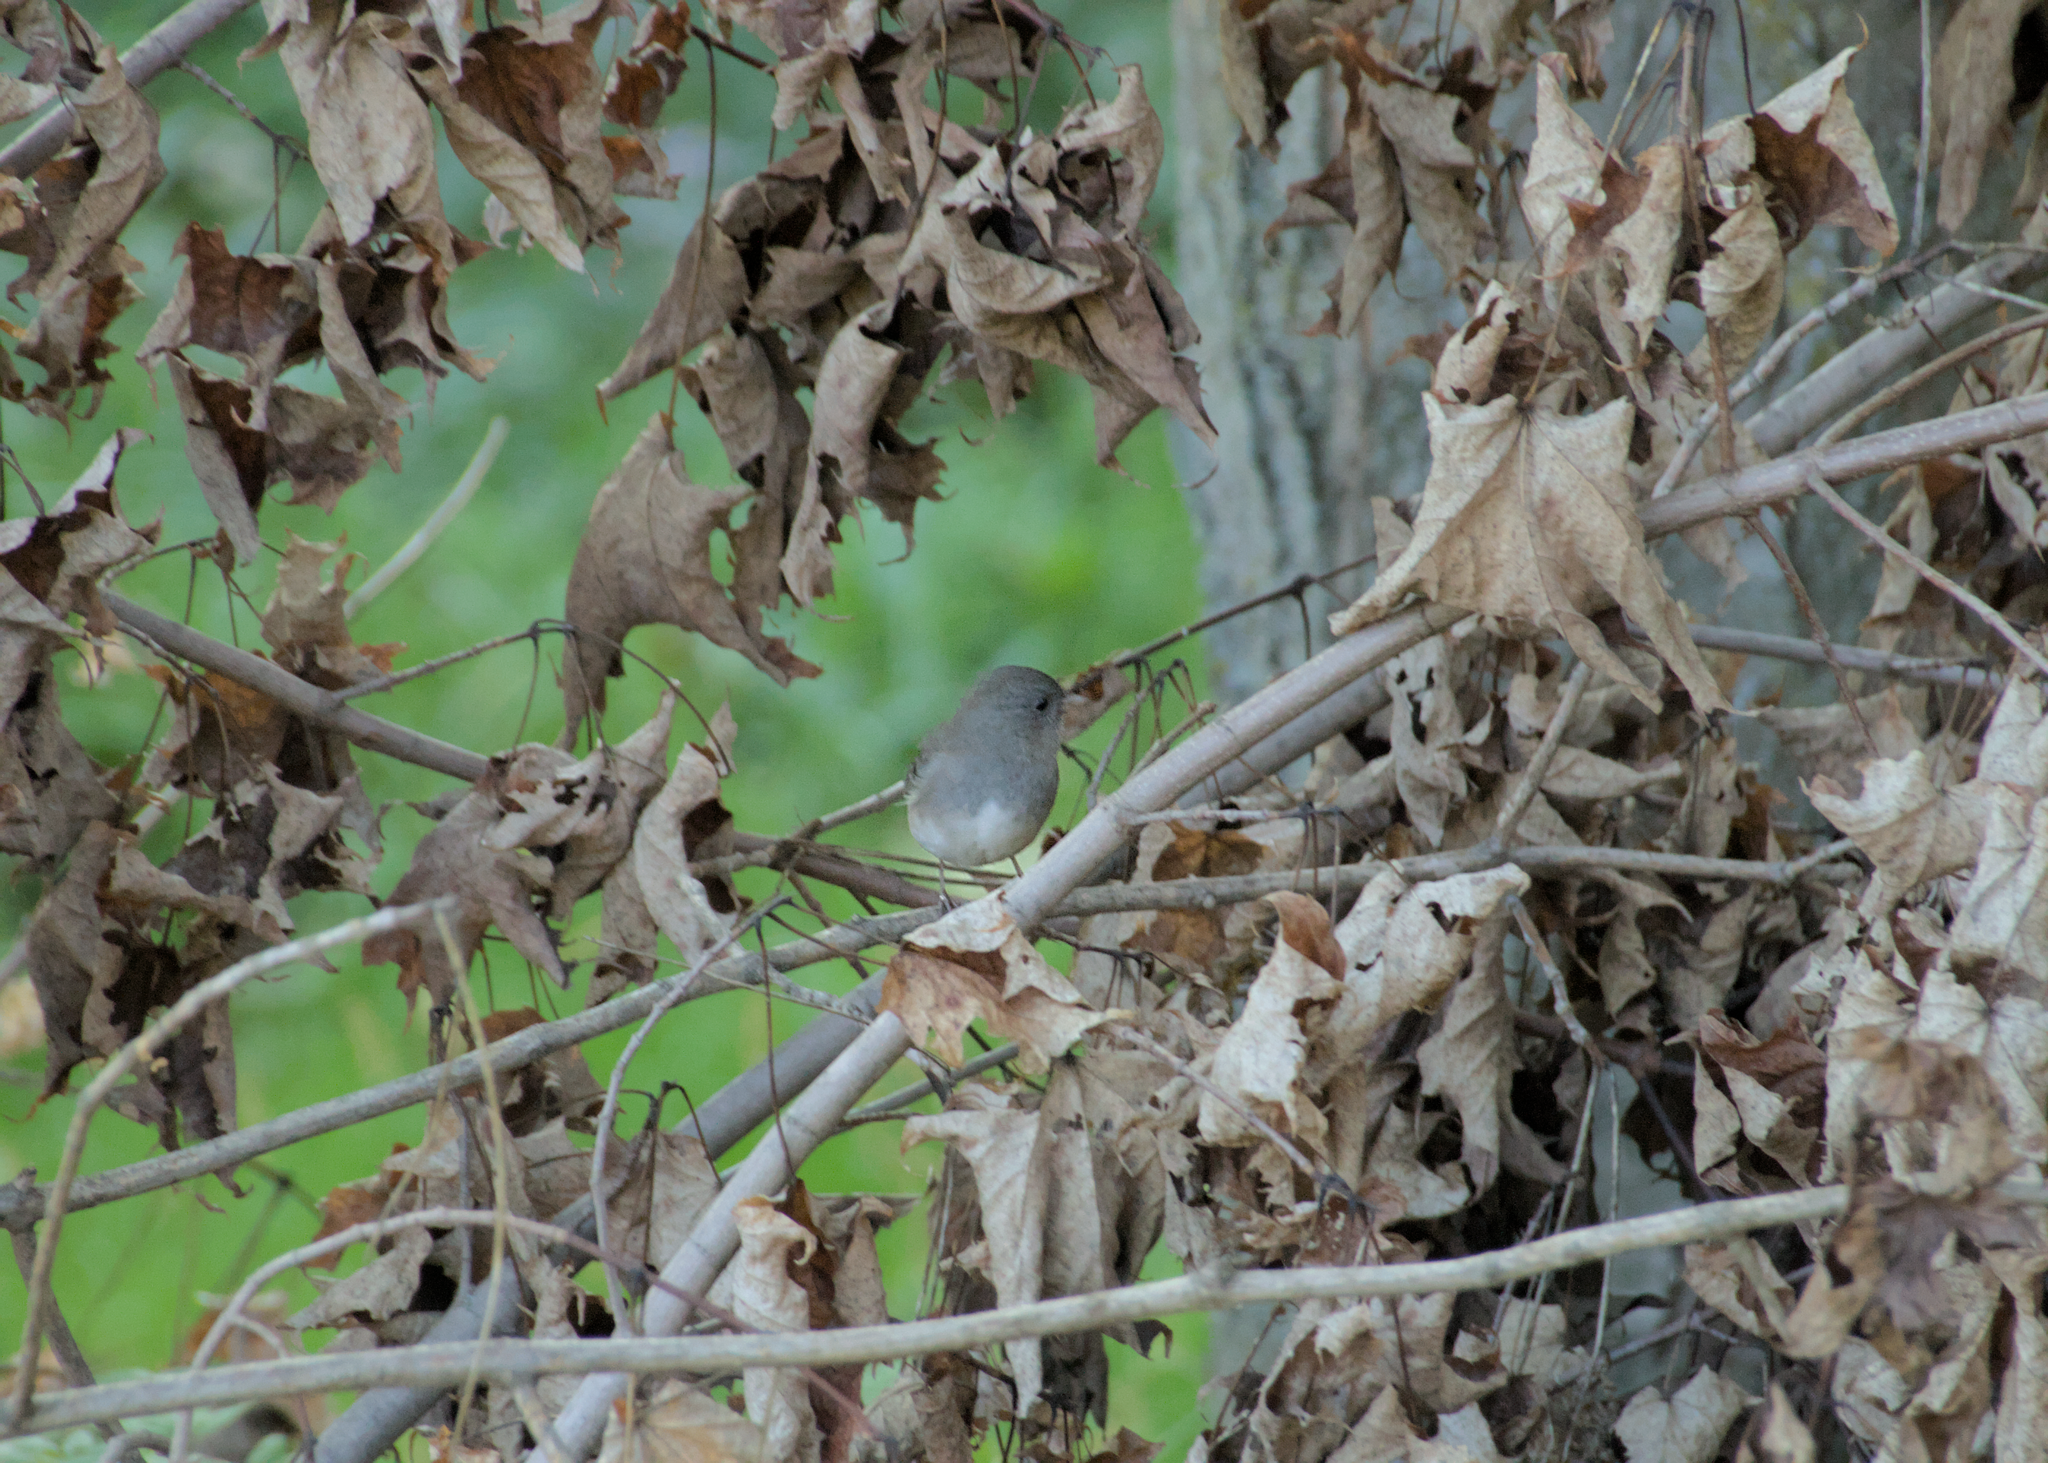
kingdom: Animalia
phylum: Chordata
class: Aves
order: Passeriformes
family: Passerellidae
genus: Junco
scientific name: Junco hyemalis
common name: Dark-eyed junco
